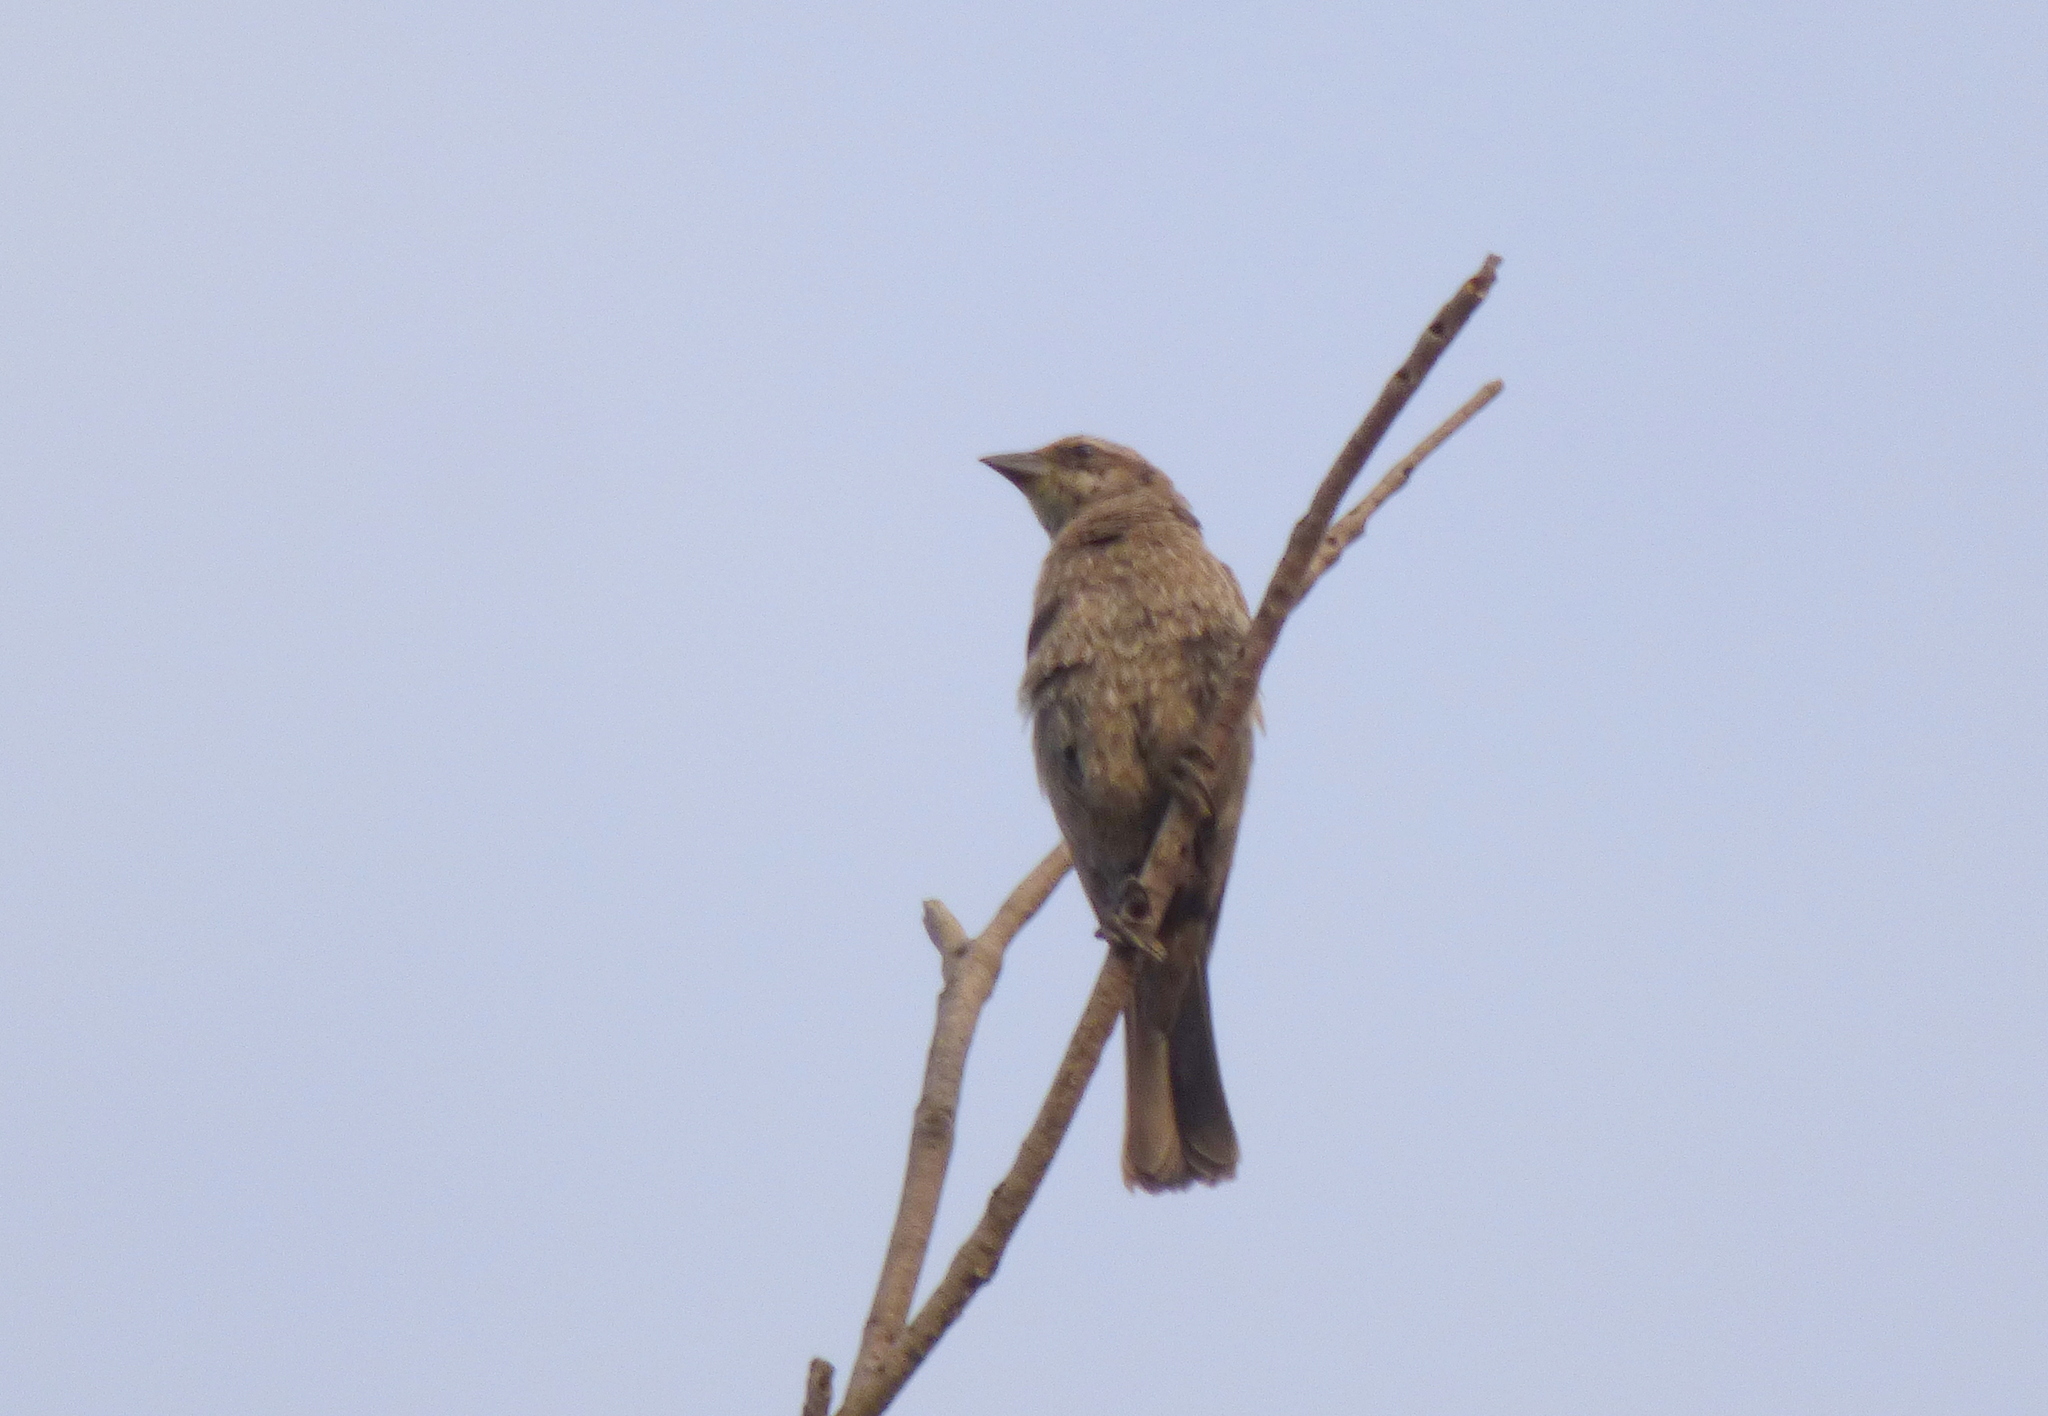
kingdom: Animalia
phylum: Chordata
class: Aves
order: Passeriformes
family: Icteridae
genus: Molothrus
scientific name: Molothrus bonariensis
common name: Shiny cowbird
